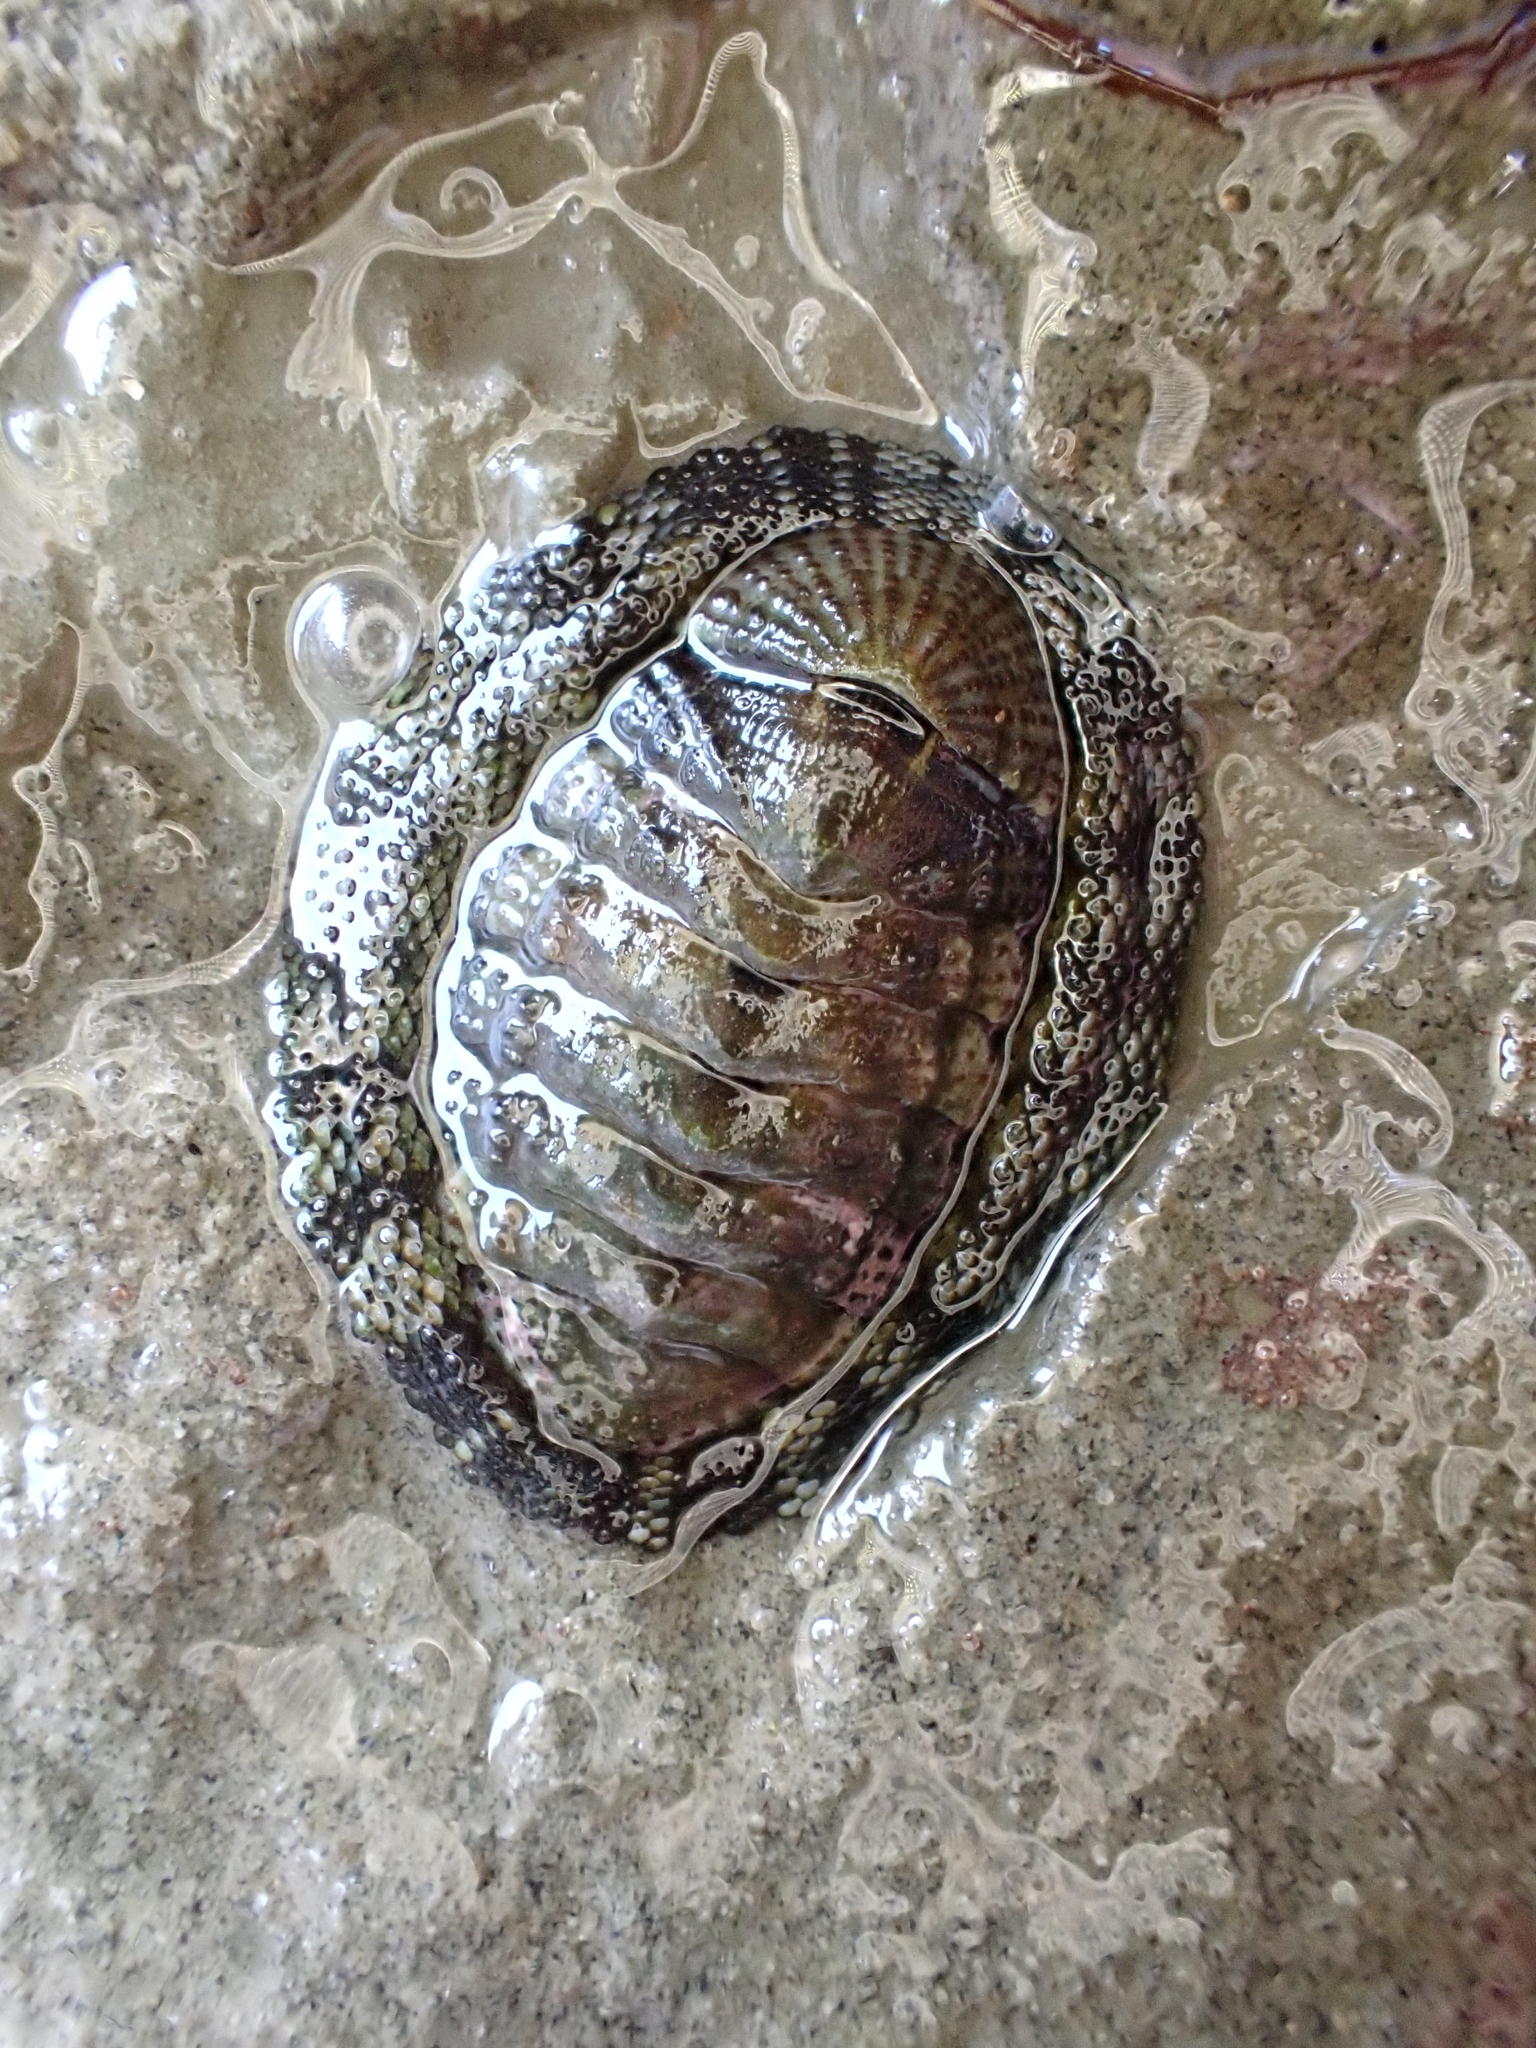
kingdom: Animalia
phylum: Mollusca
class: Polyplacophora
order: Chitonida
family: Chitonidae
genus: Sypharochiton
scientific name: Sypharochiton pelliserpentis
